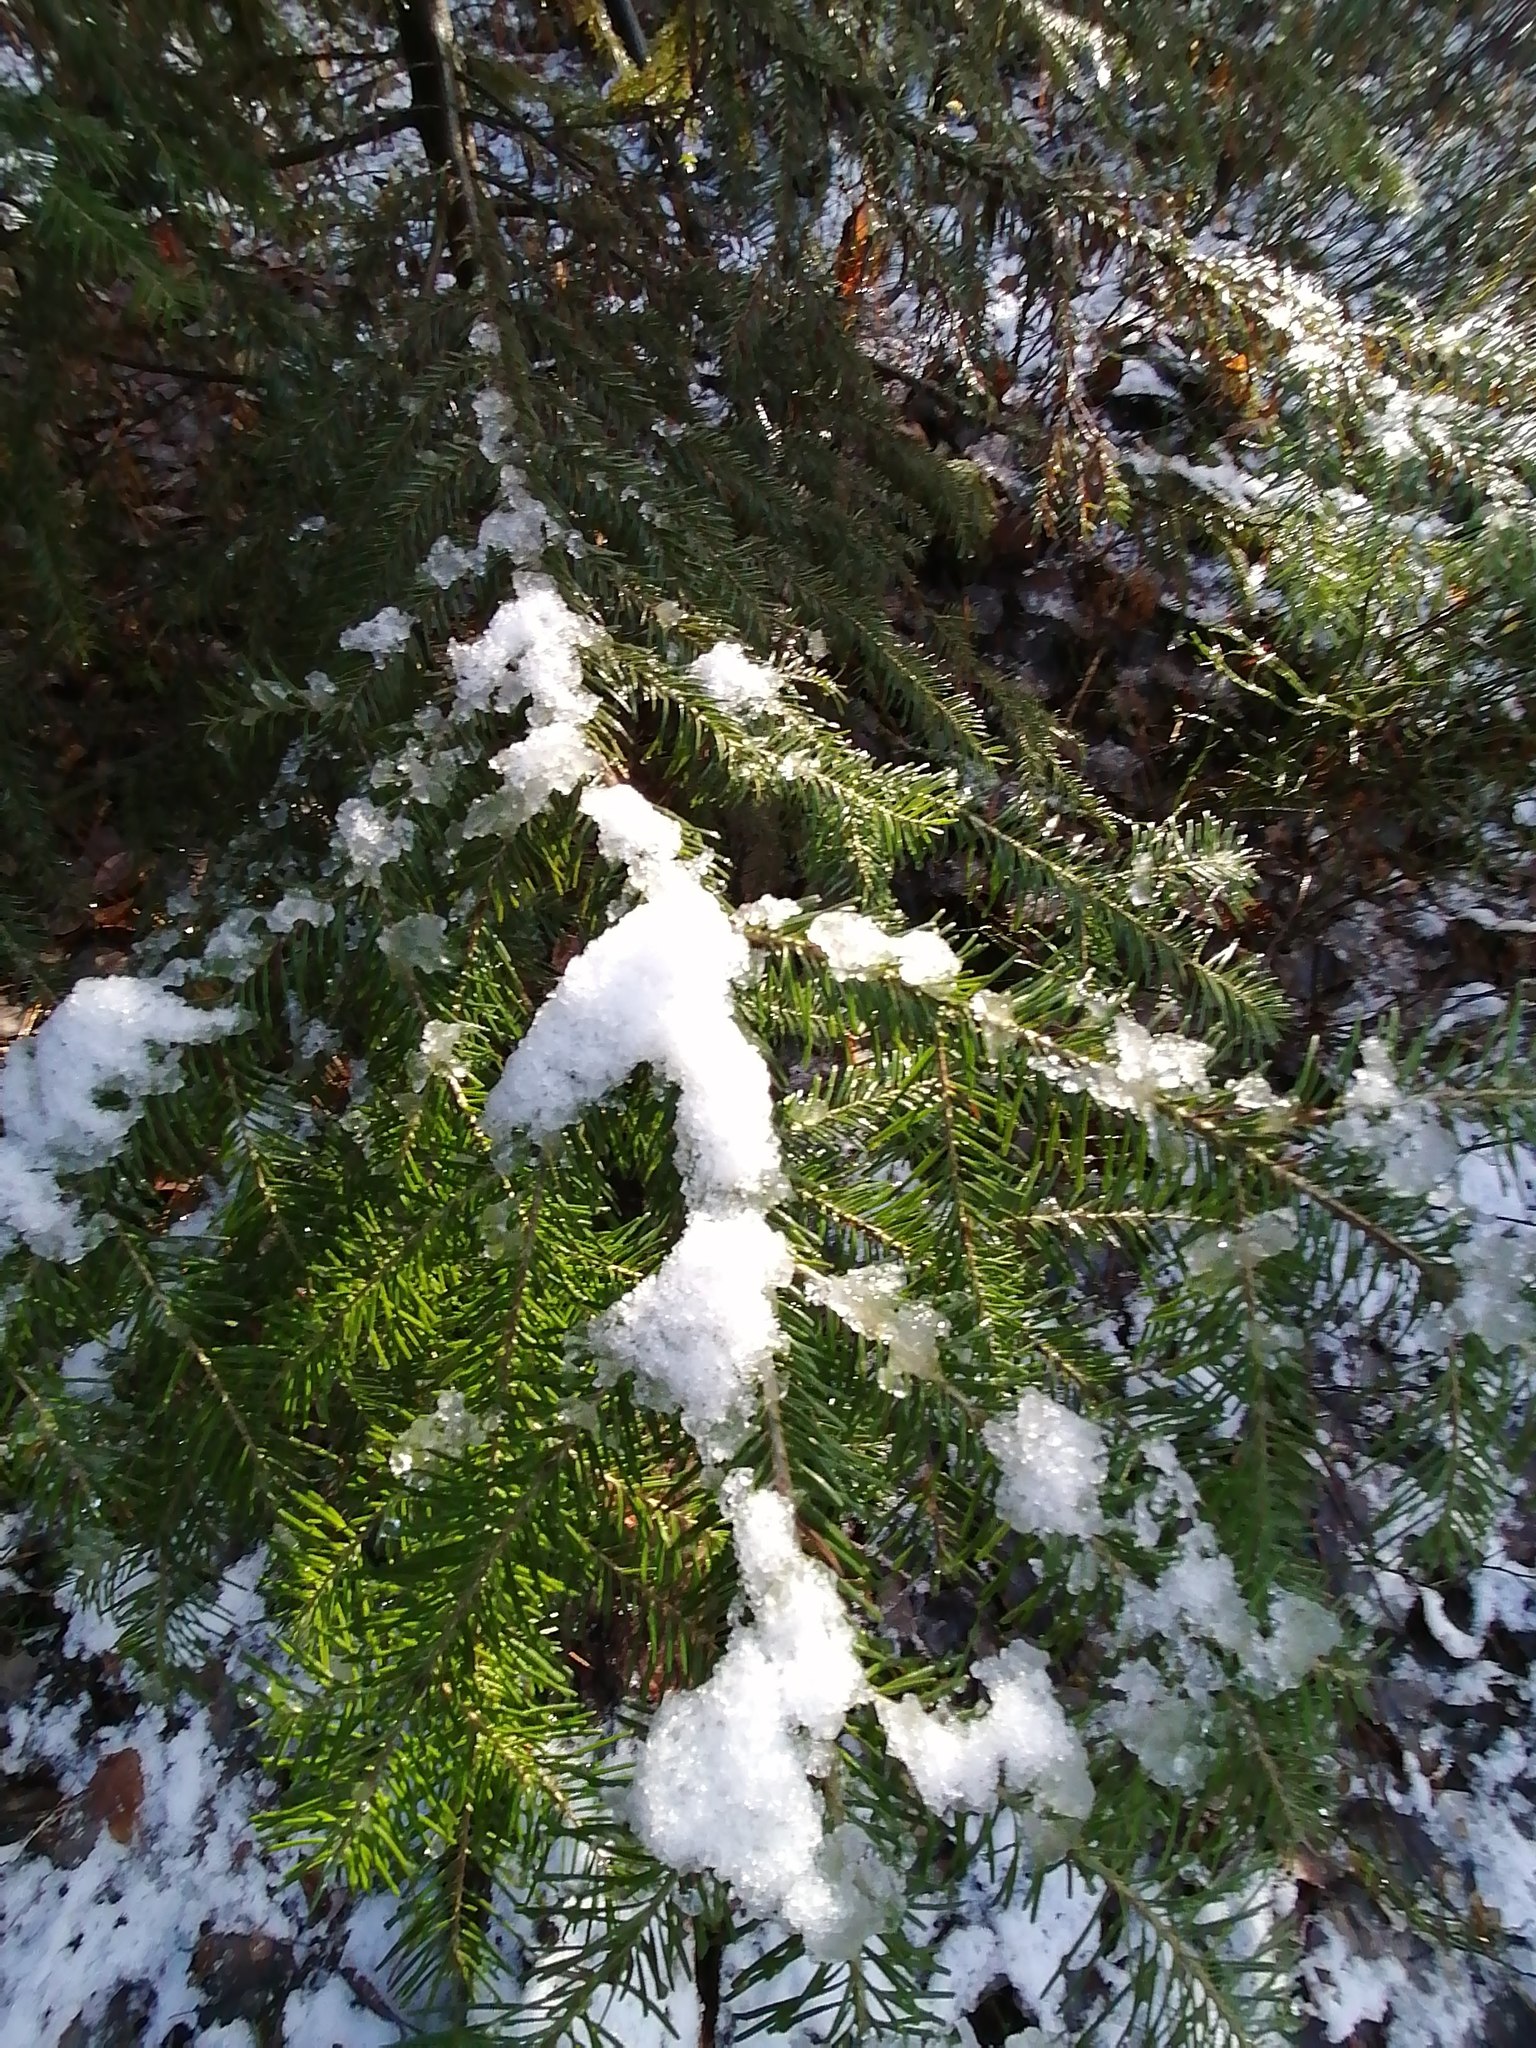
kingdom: Plantae
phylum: Tracheophyta
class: Pinopsida
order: Pinales
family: Pinaceae
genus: Abies
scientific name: Abies sibirica
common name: Siberian fir
